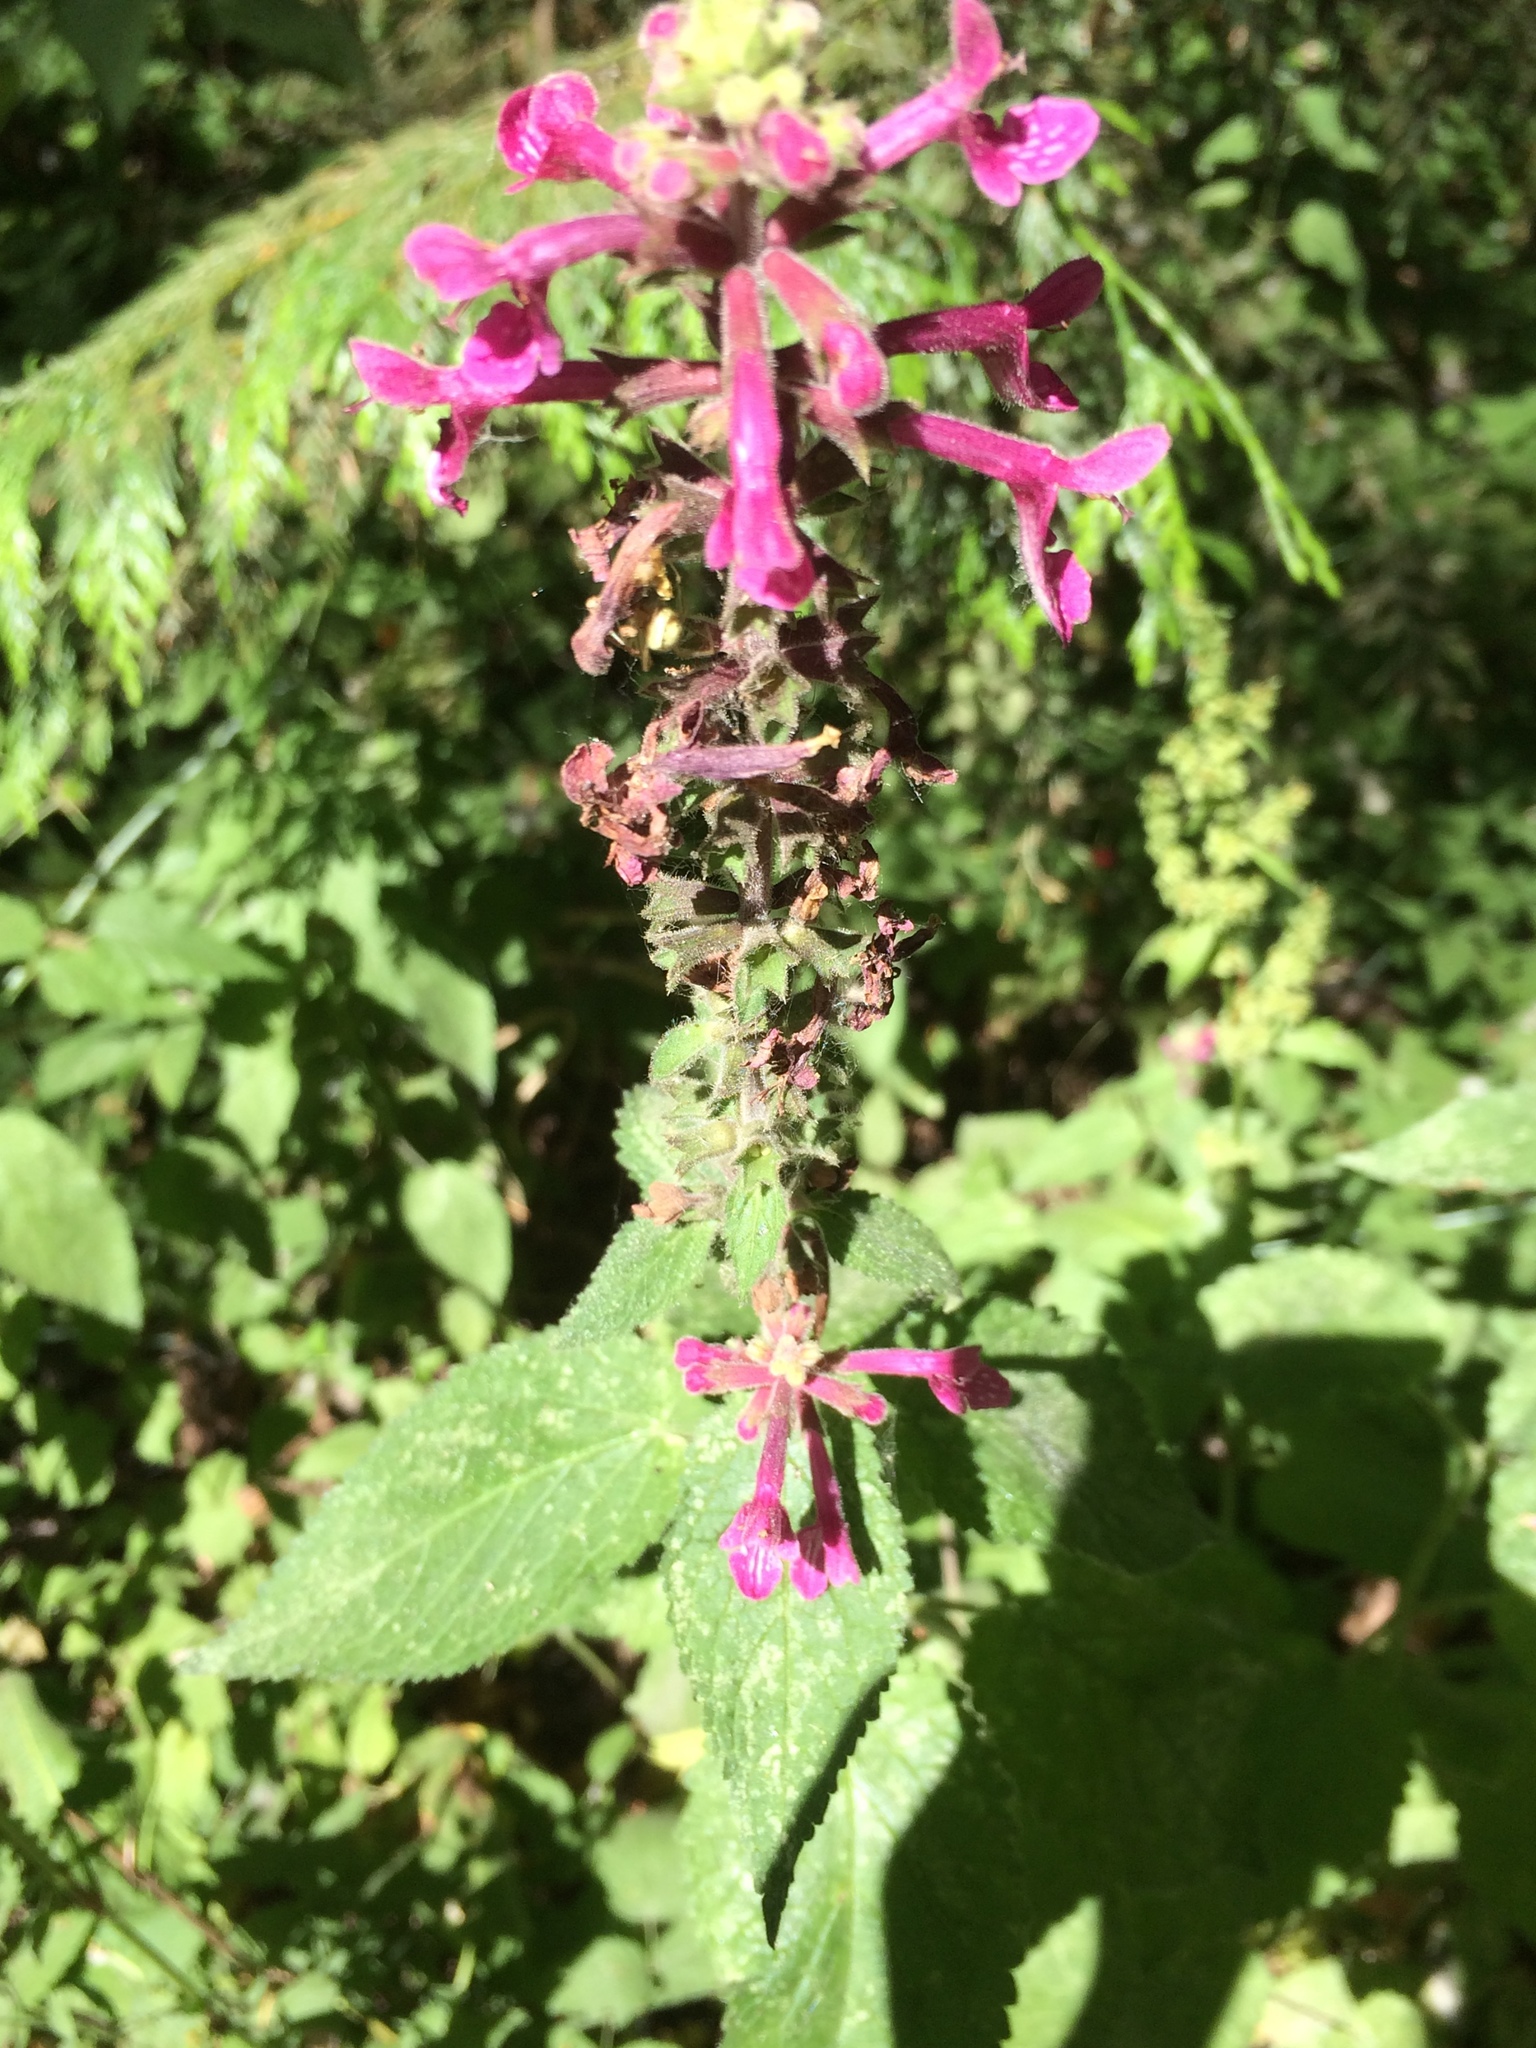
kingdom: Plantae
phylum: Tracheophyta
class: Magnoliopsida
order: Lamiales
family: Lamiaceae
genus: Stachys
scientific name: Stachys chamissonis
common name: Coastal hedge-nettle
